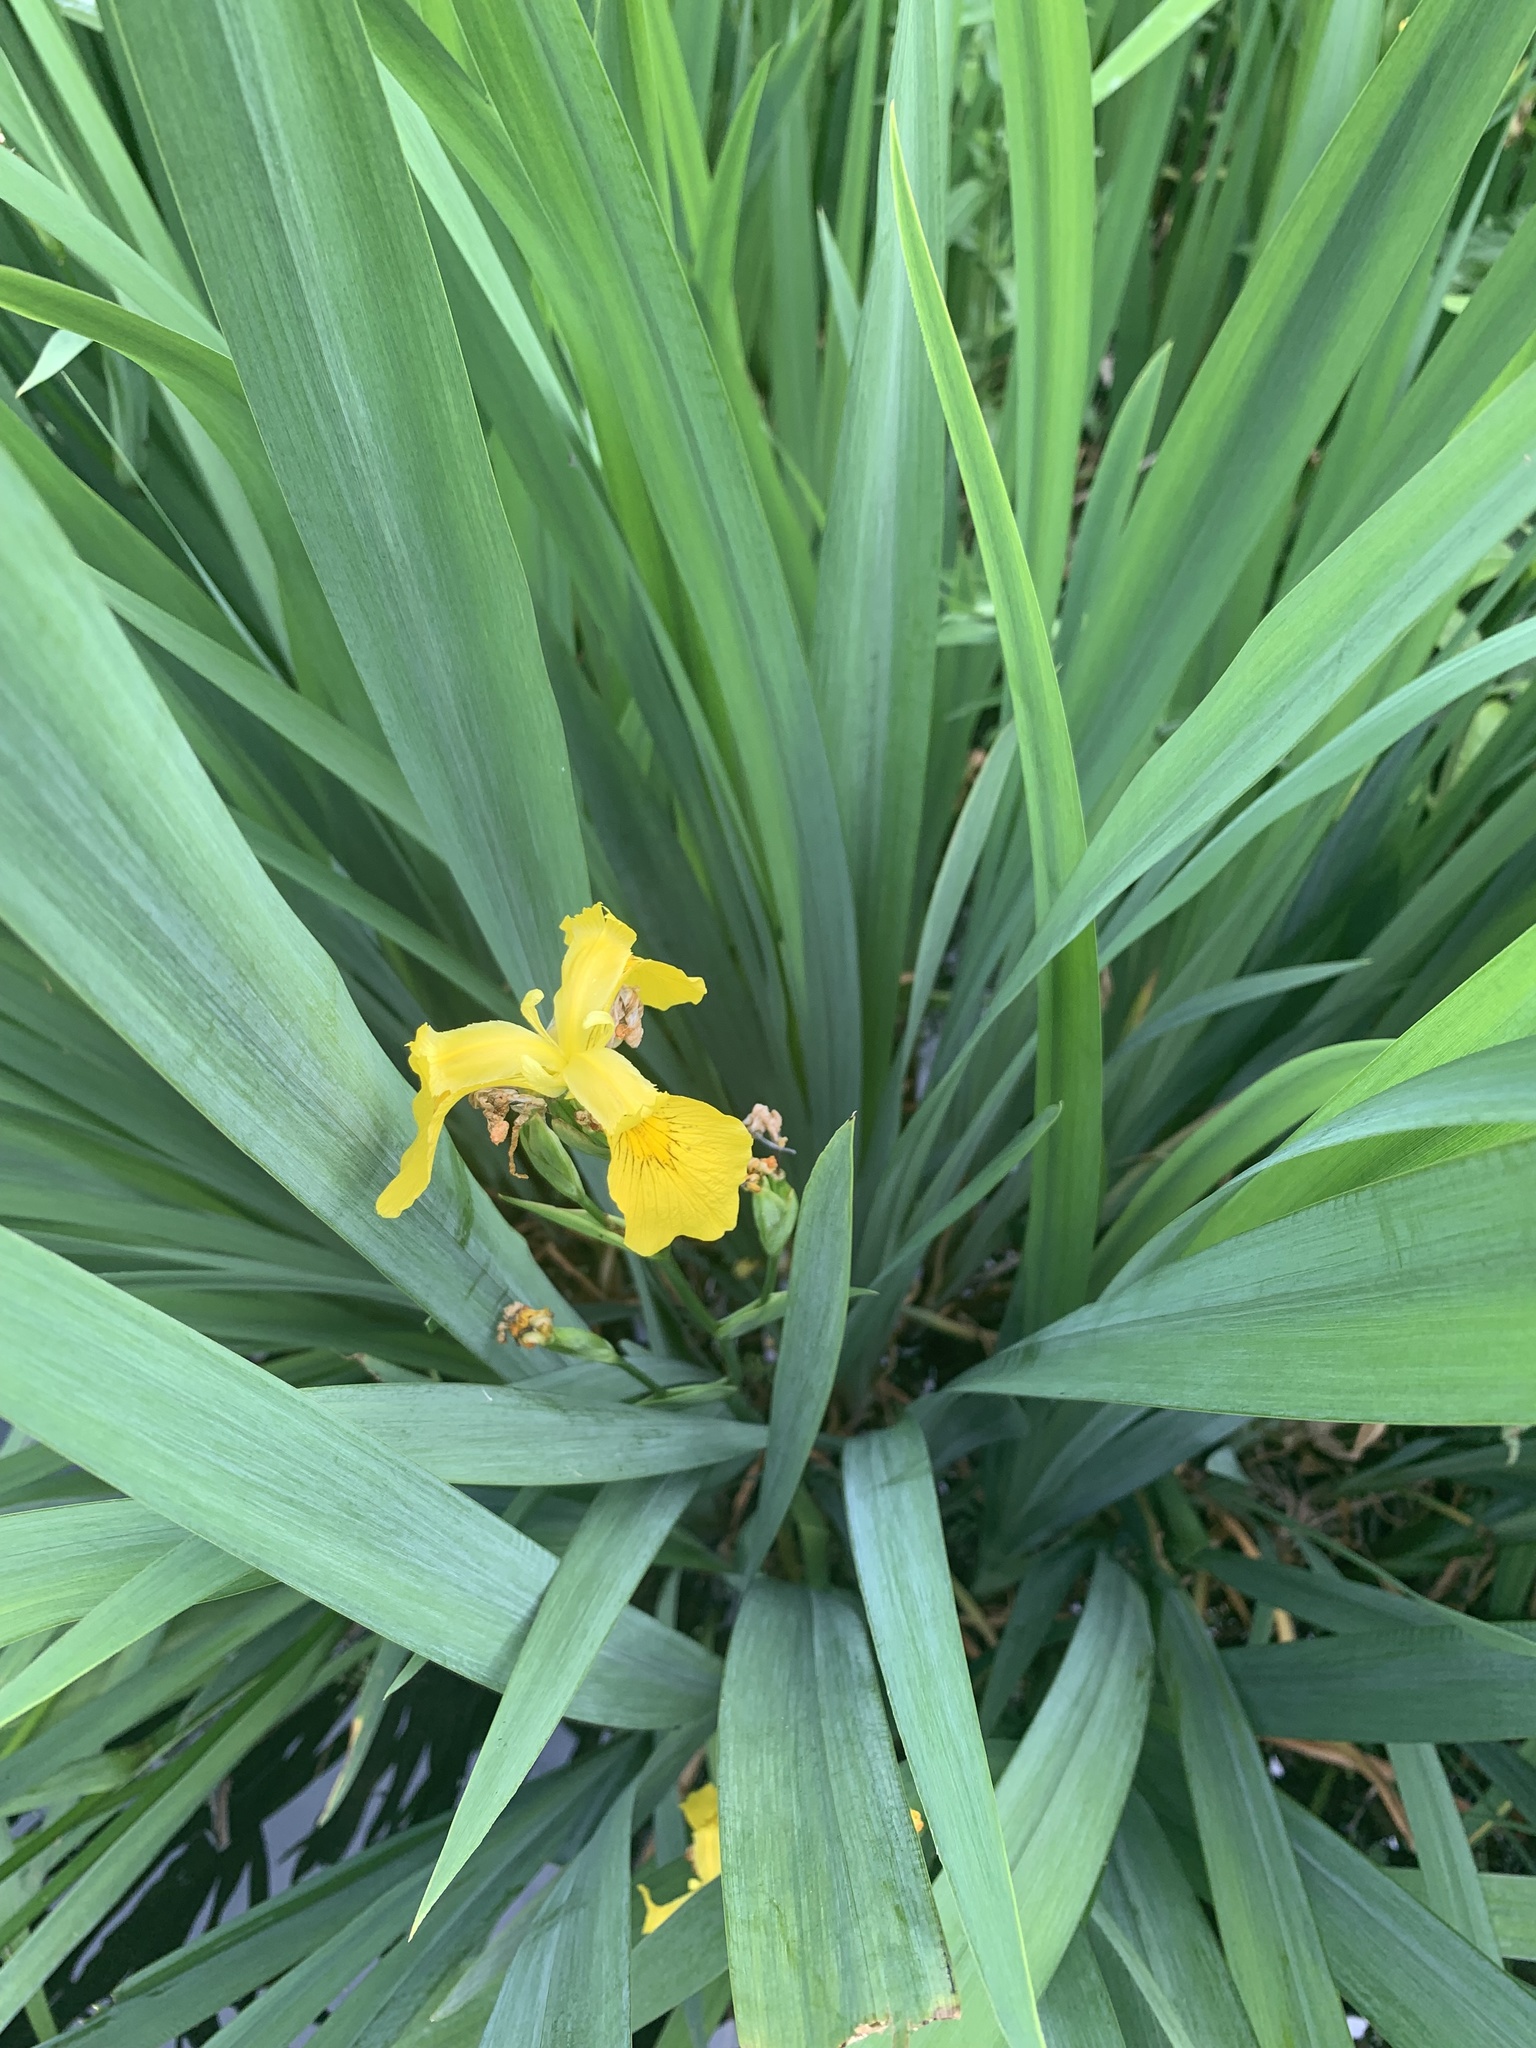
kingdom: Plantae
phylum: Tracheophyta
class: Liliopsida
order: Asparagales
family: Iridaceae
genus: Iris
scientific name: Iris pseudacorus
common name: Yellow flag
